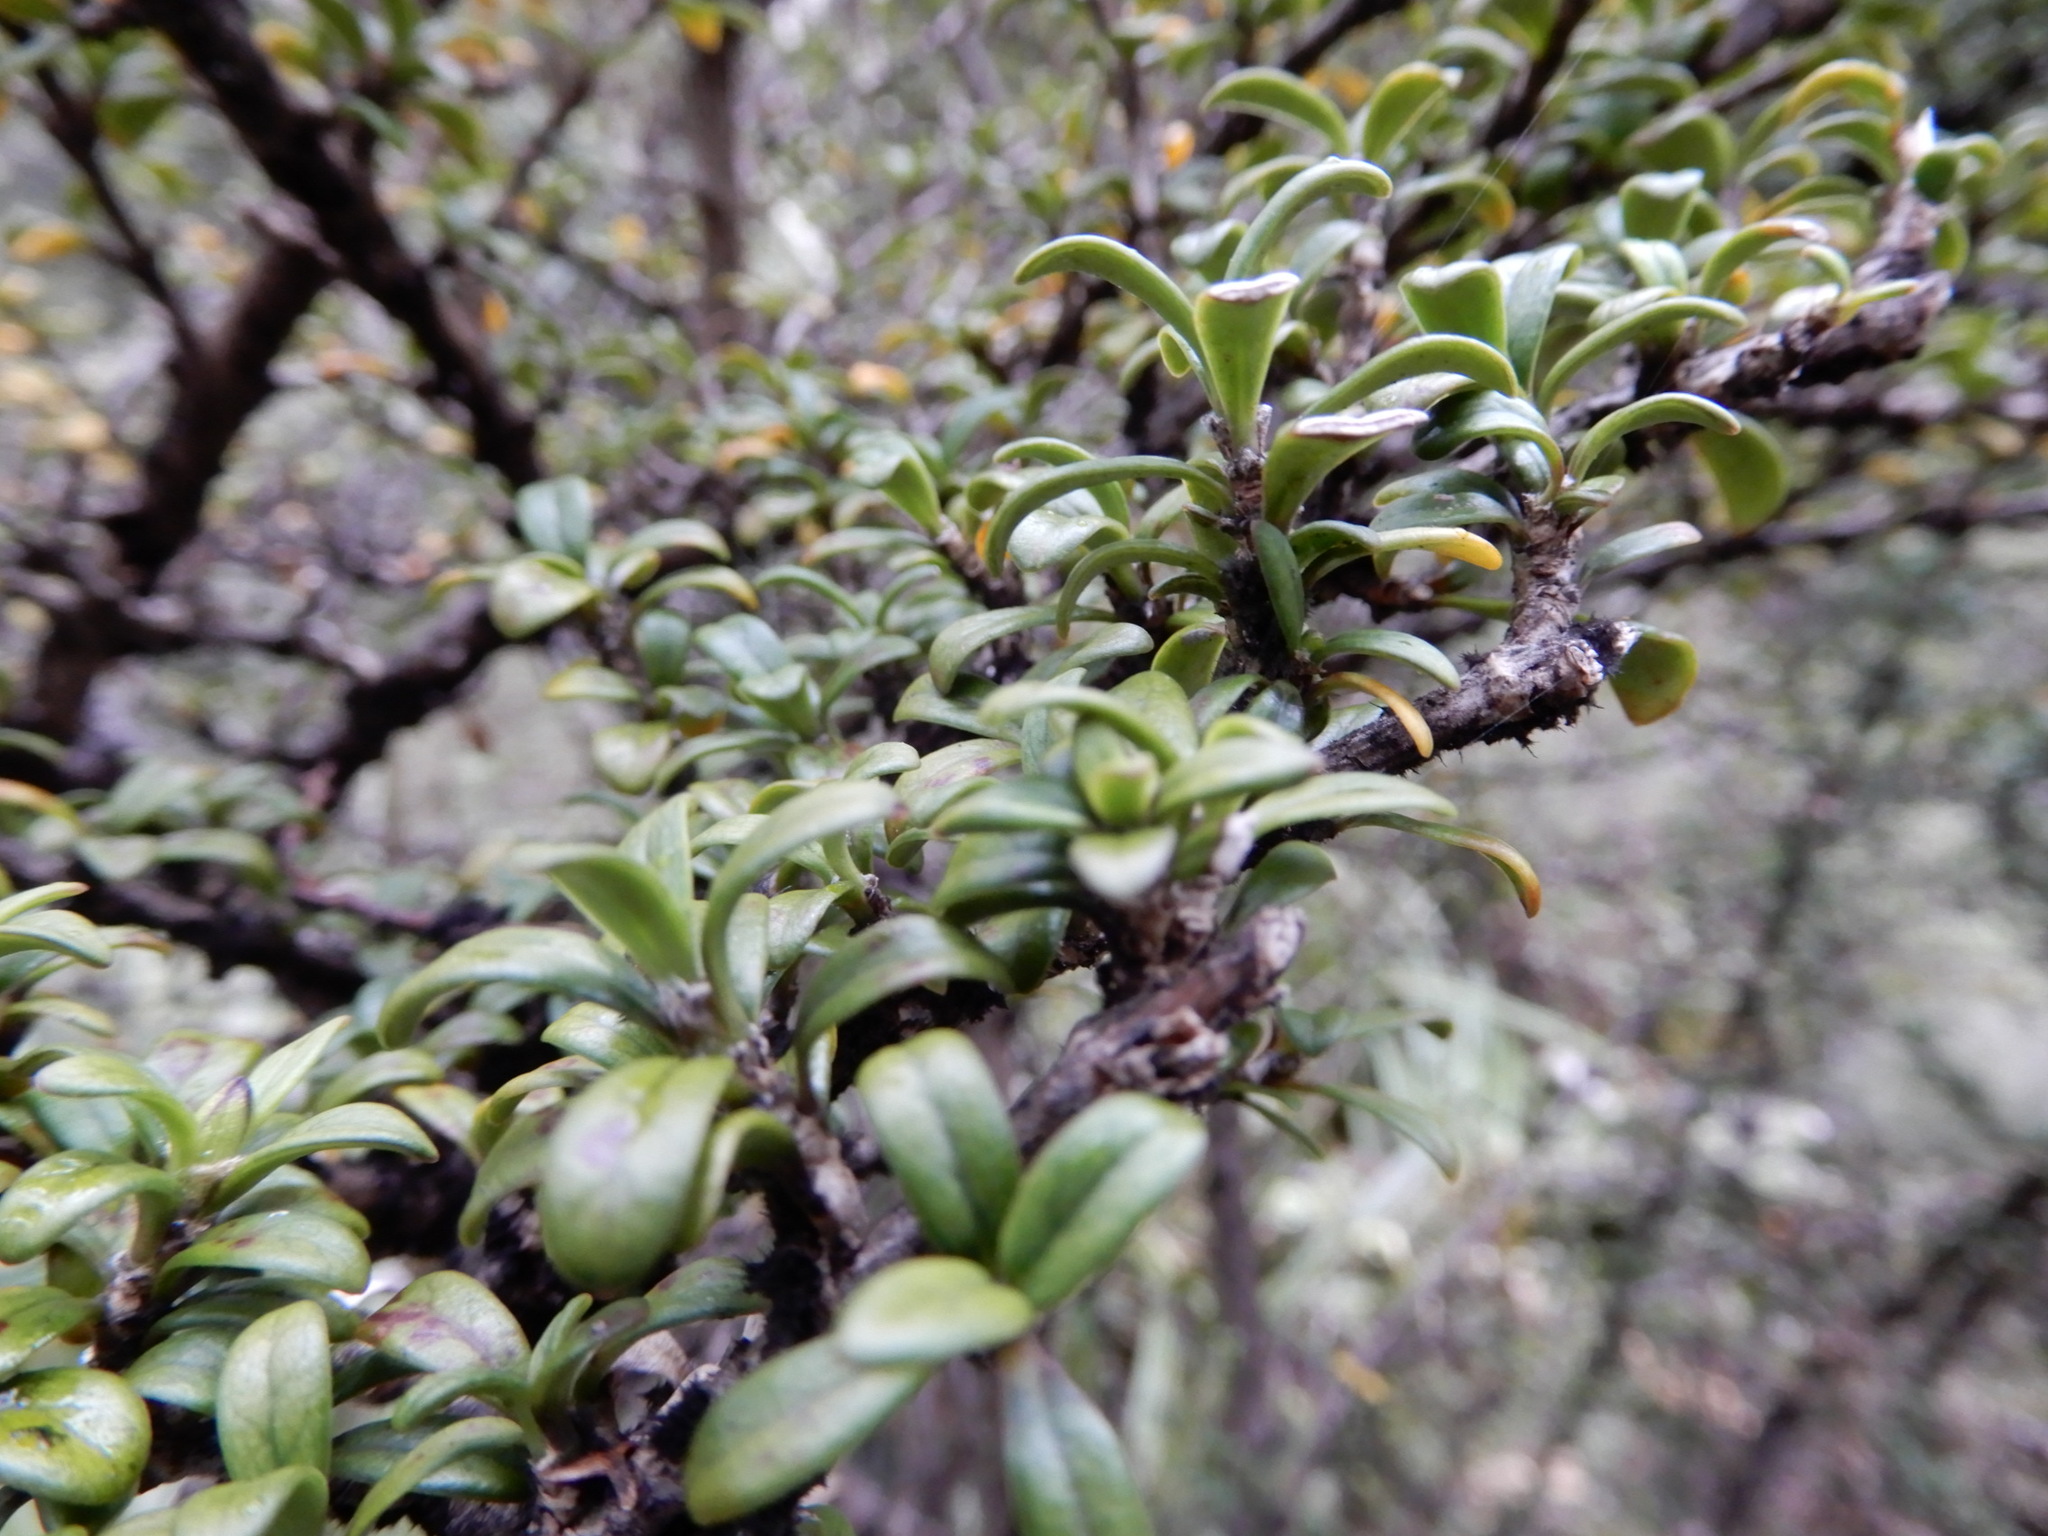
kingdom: Plantae
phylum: Tracheophyta
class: Magnoliopsida
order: Gentianales
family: Rubiaceae
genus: Coprosma
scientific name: Coprosma pseudocuneata
